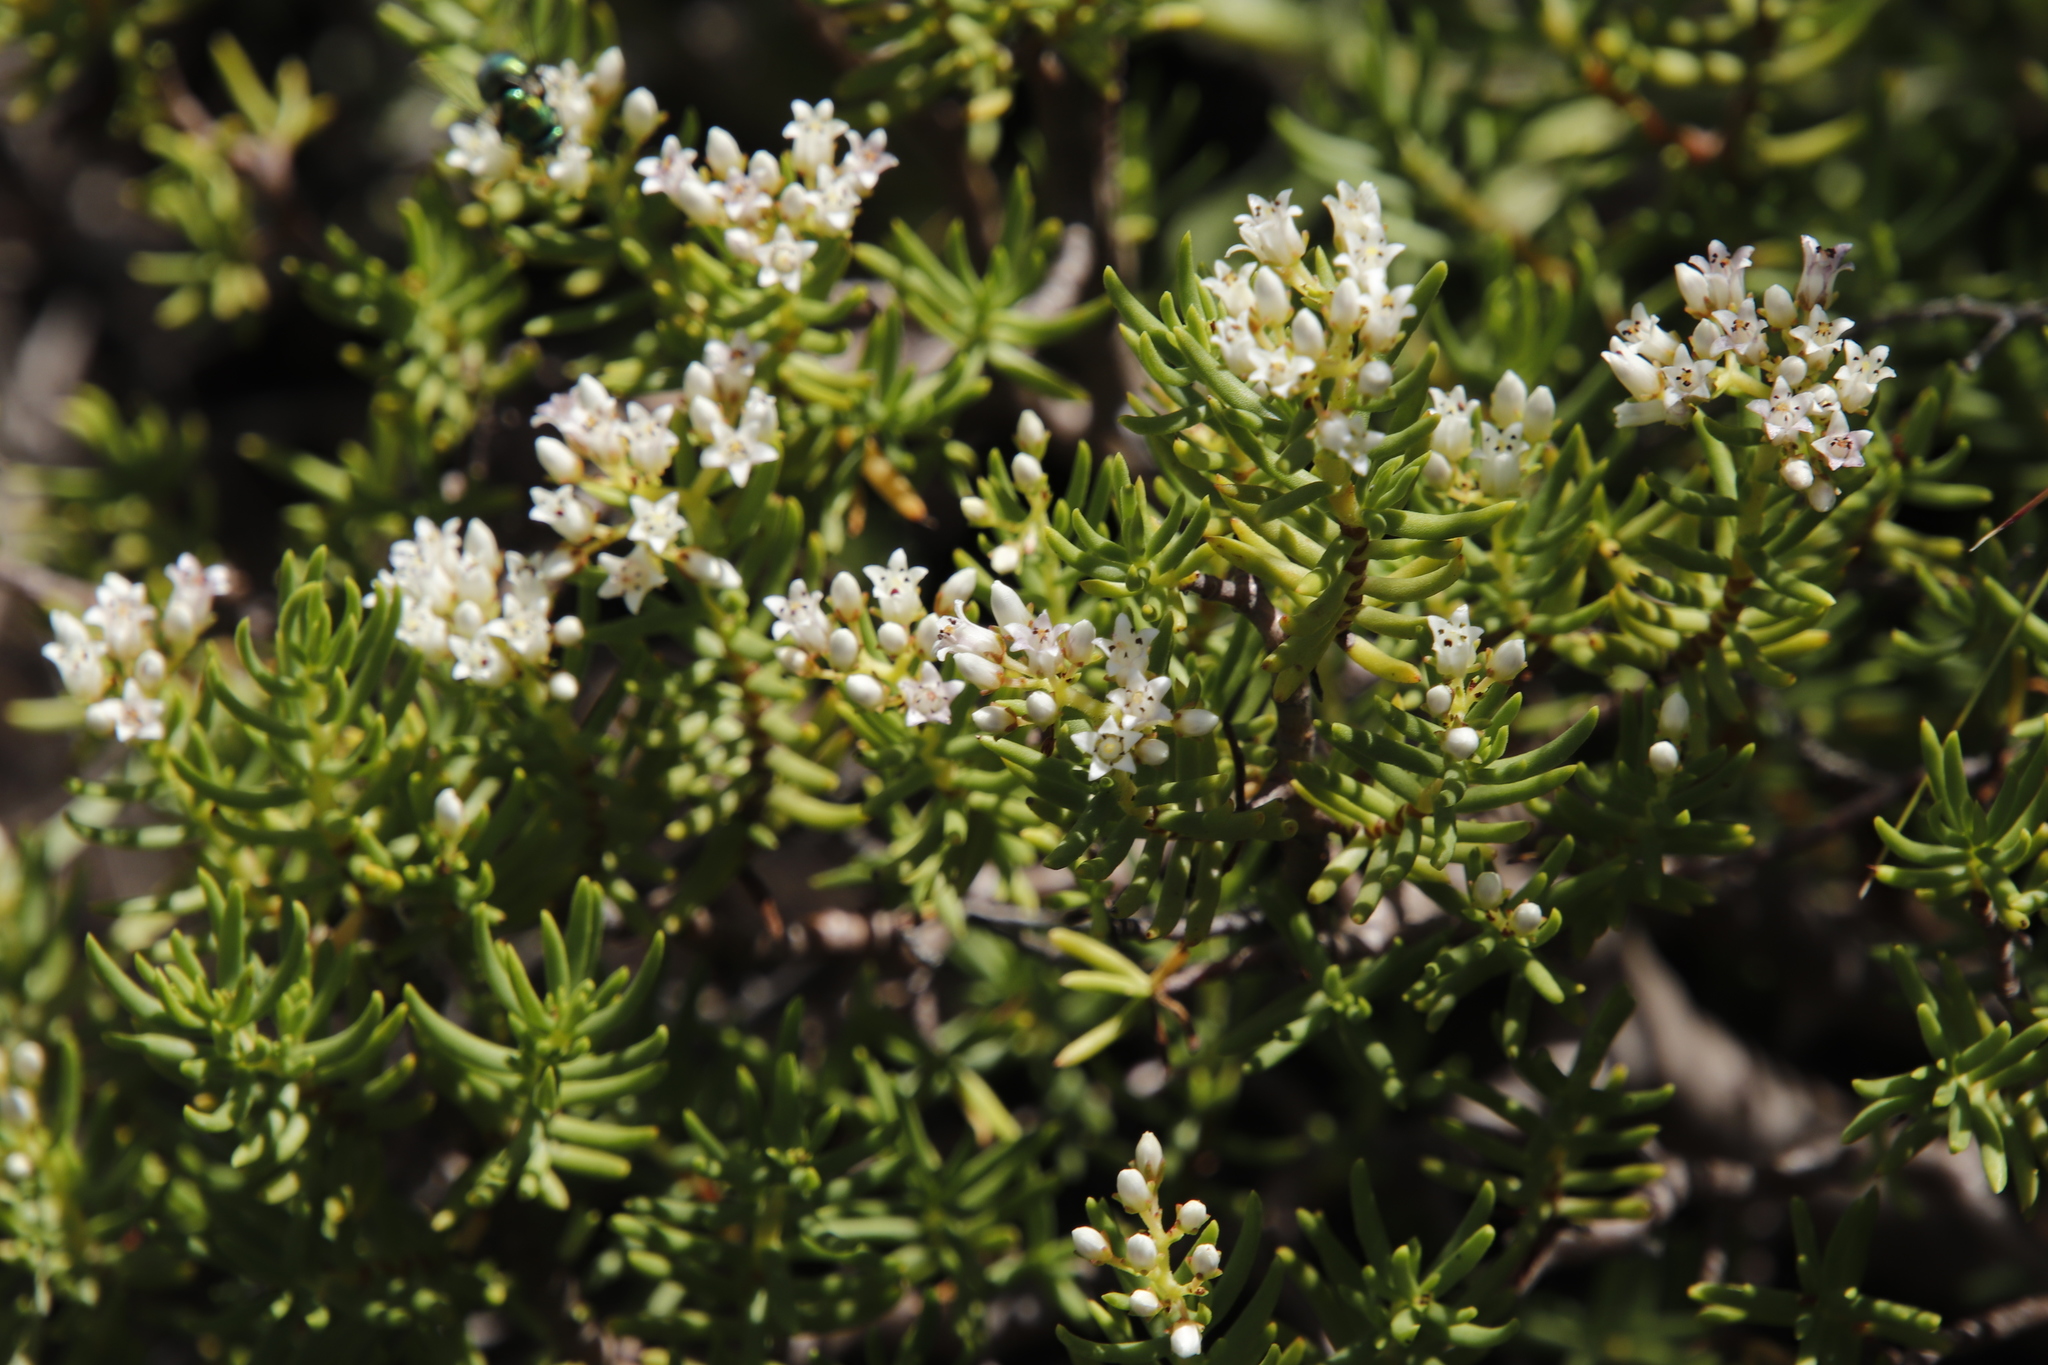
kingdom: Plantae
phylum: Tracheophyta
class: Magnoliopsida
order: Saxifragales
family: Crassulaceae
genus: Crassula
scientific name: Crassula sarcocaulis
